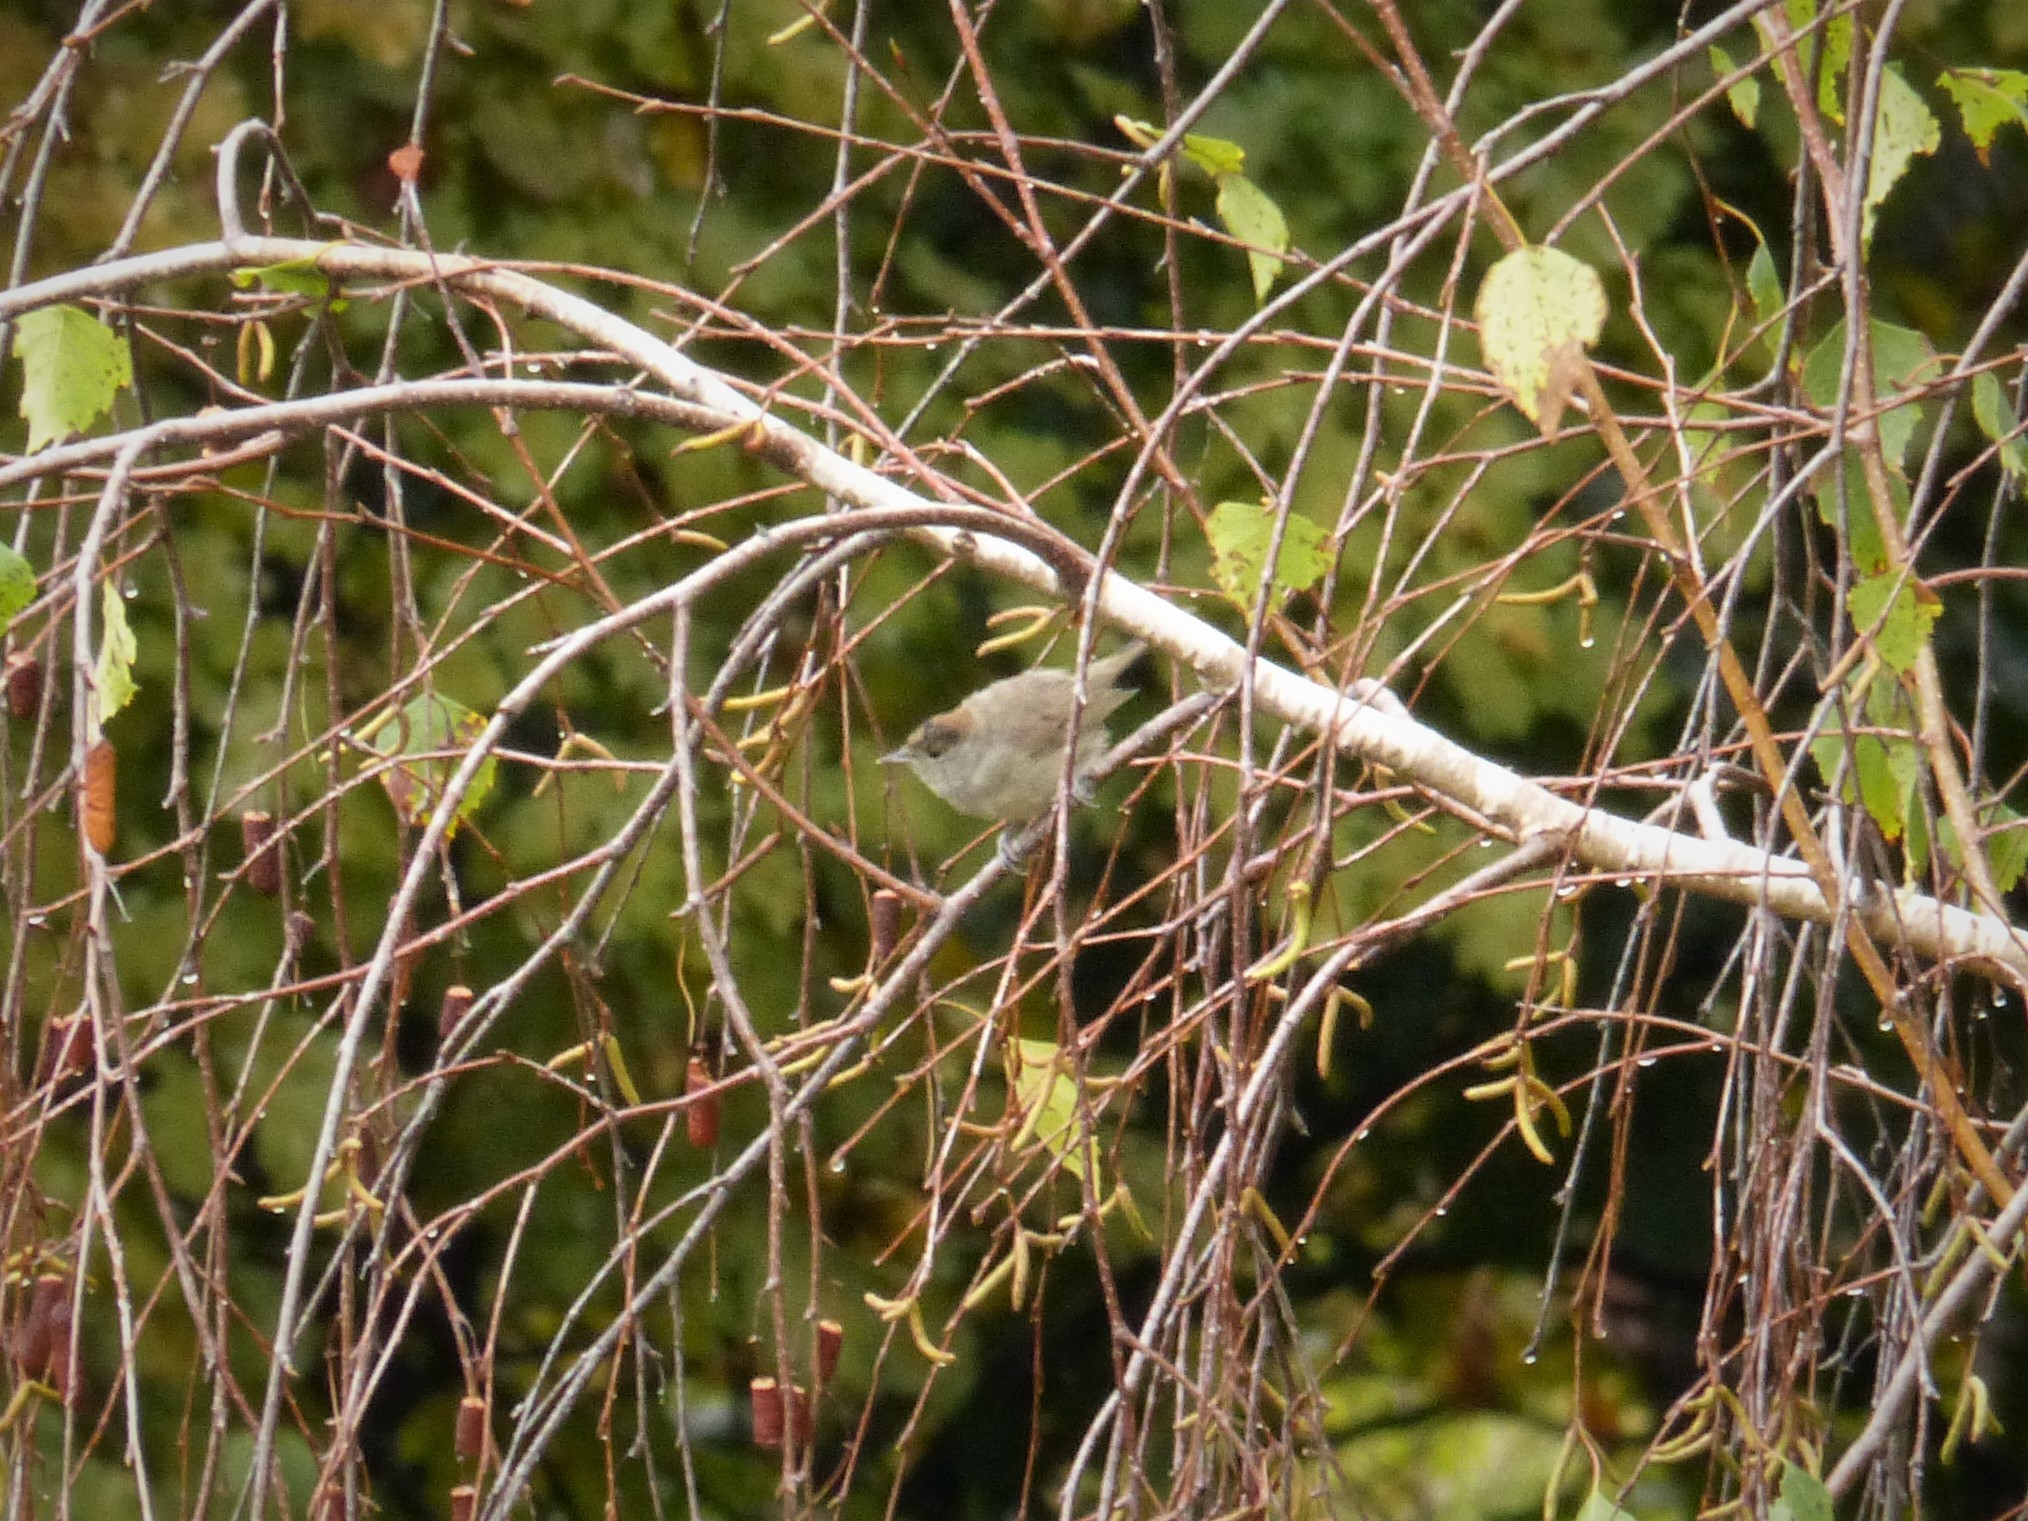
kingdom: Animalia
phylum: Chordata
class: Aves
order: Passeriformes
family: Sylviidae
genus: Sylvia
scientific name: Sylvia atricapilla
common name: Eurasian blackcap
